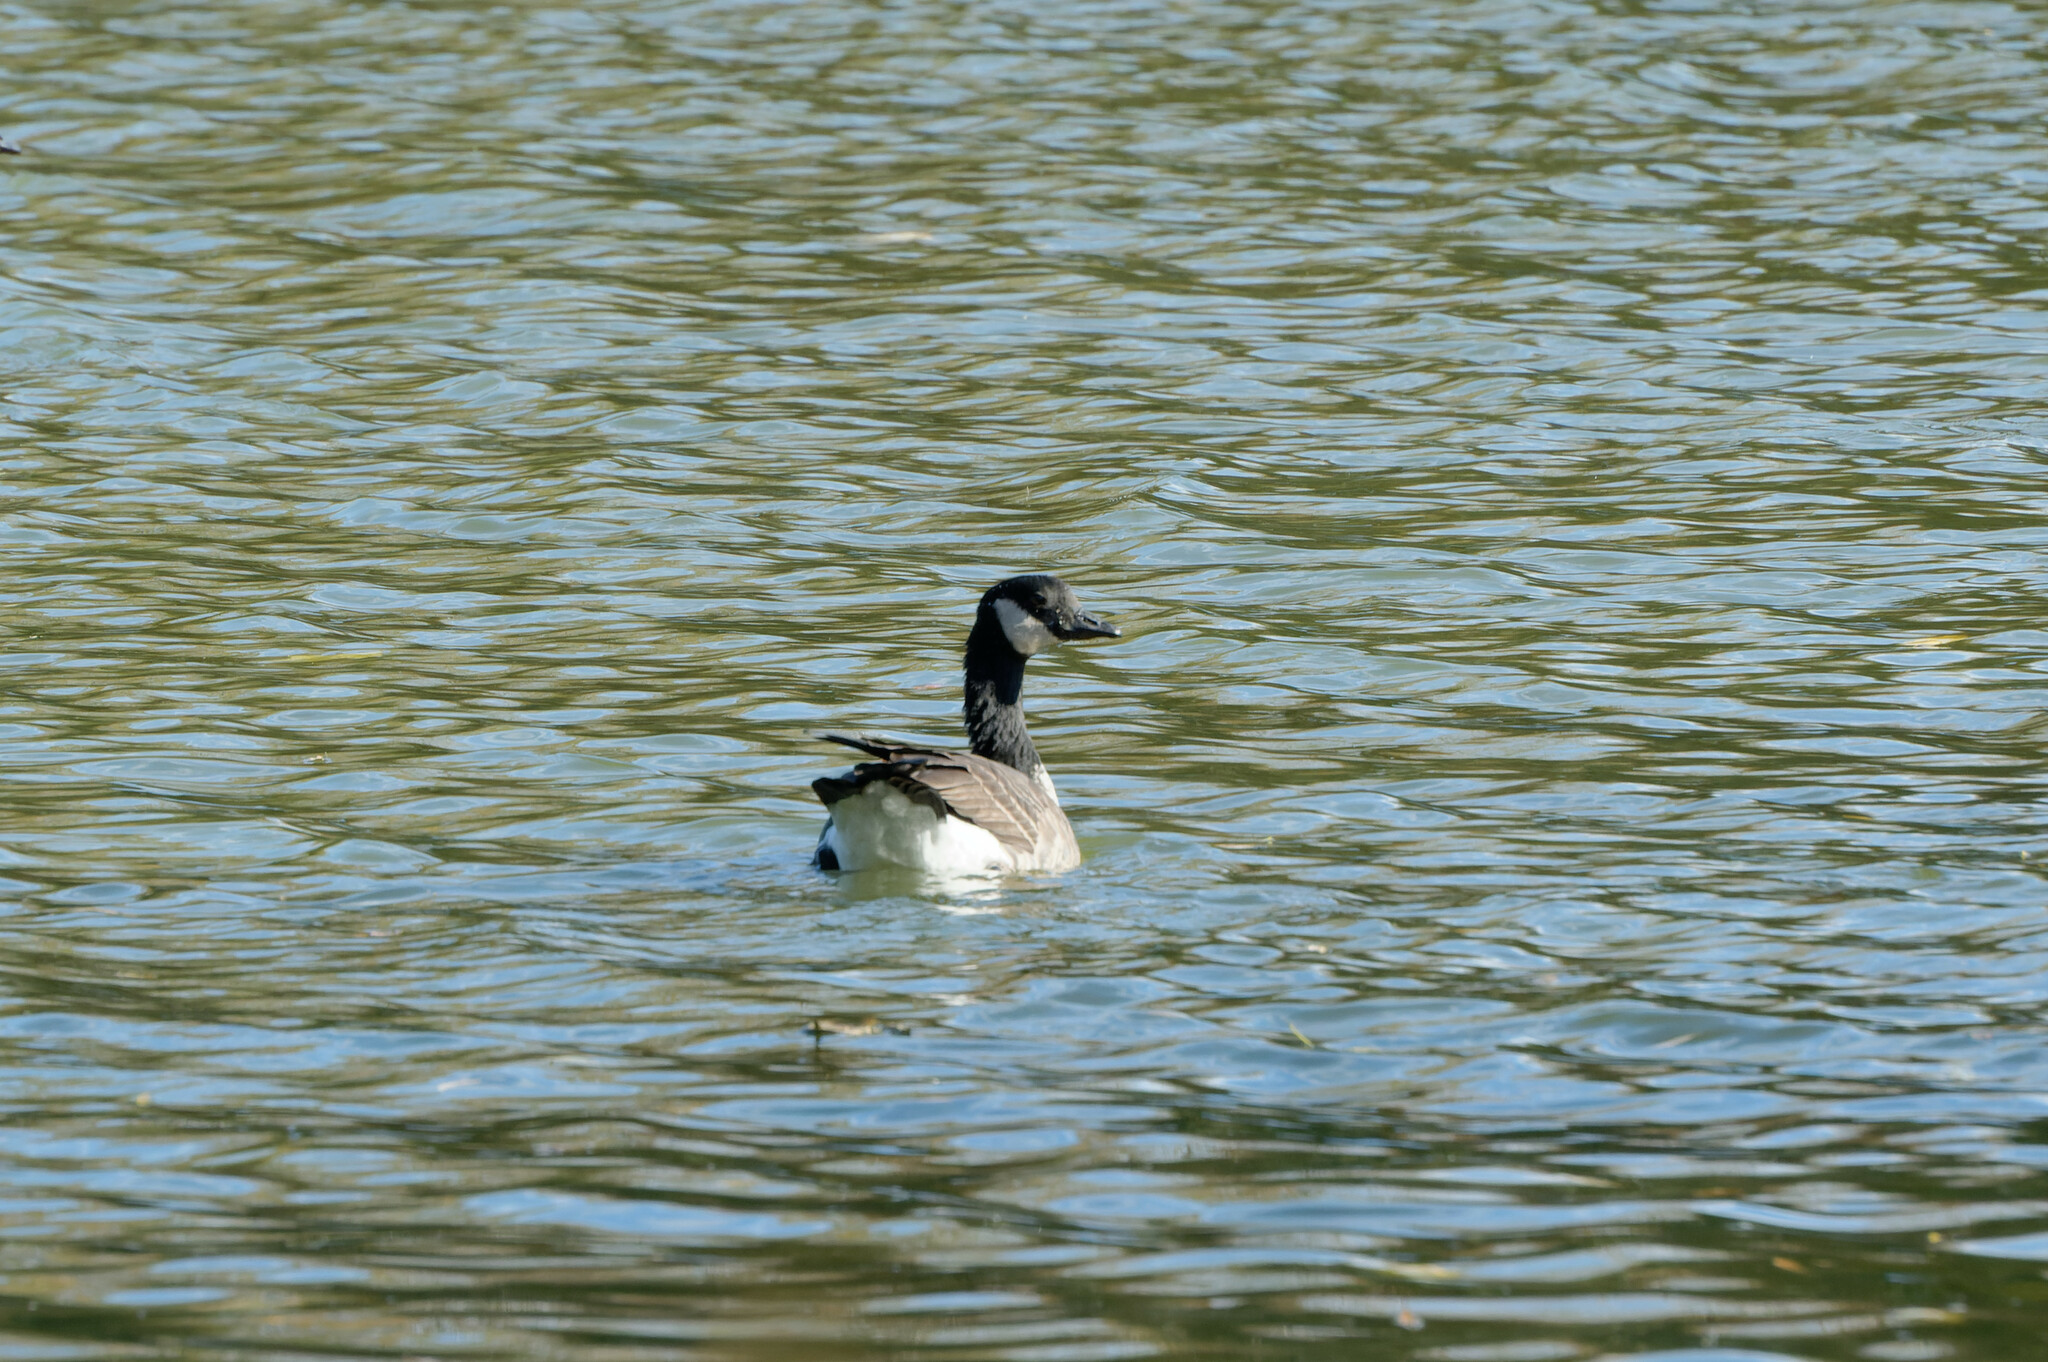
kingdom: Animalia
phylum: Chordata
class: Aves
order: Anseriformes
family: Anatidae
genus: Branta
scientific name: Branta hutchinsii
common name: Cackling goose
